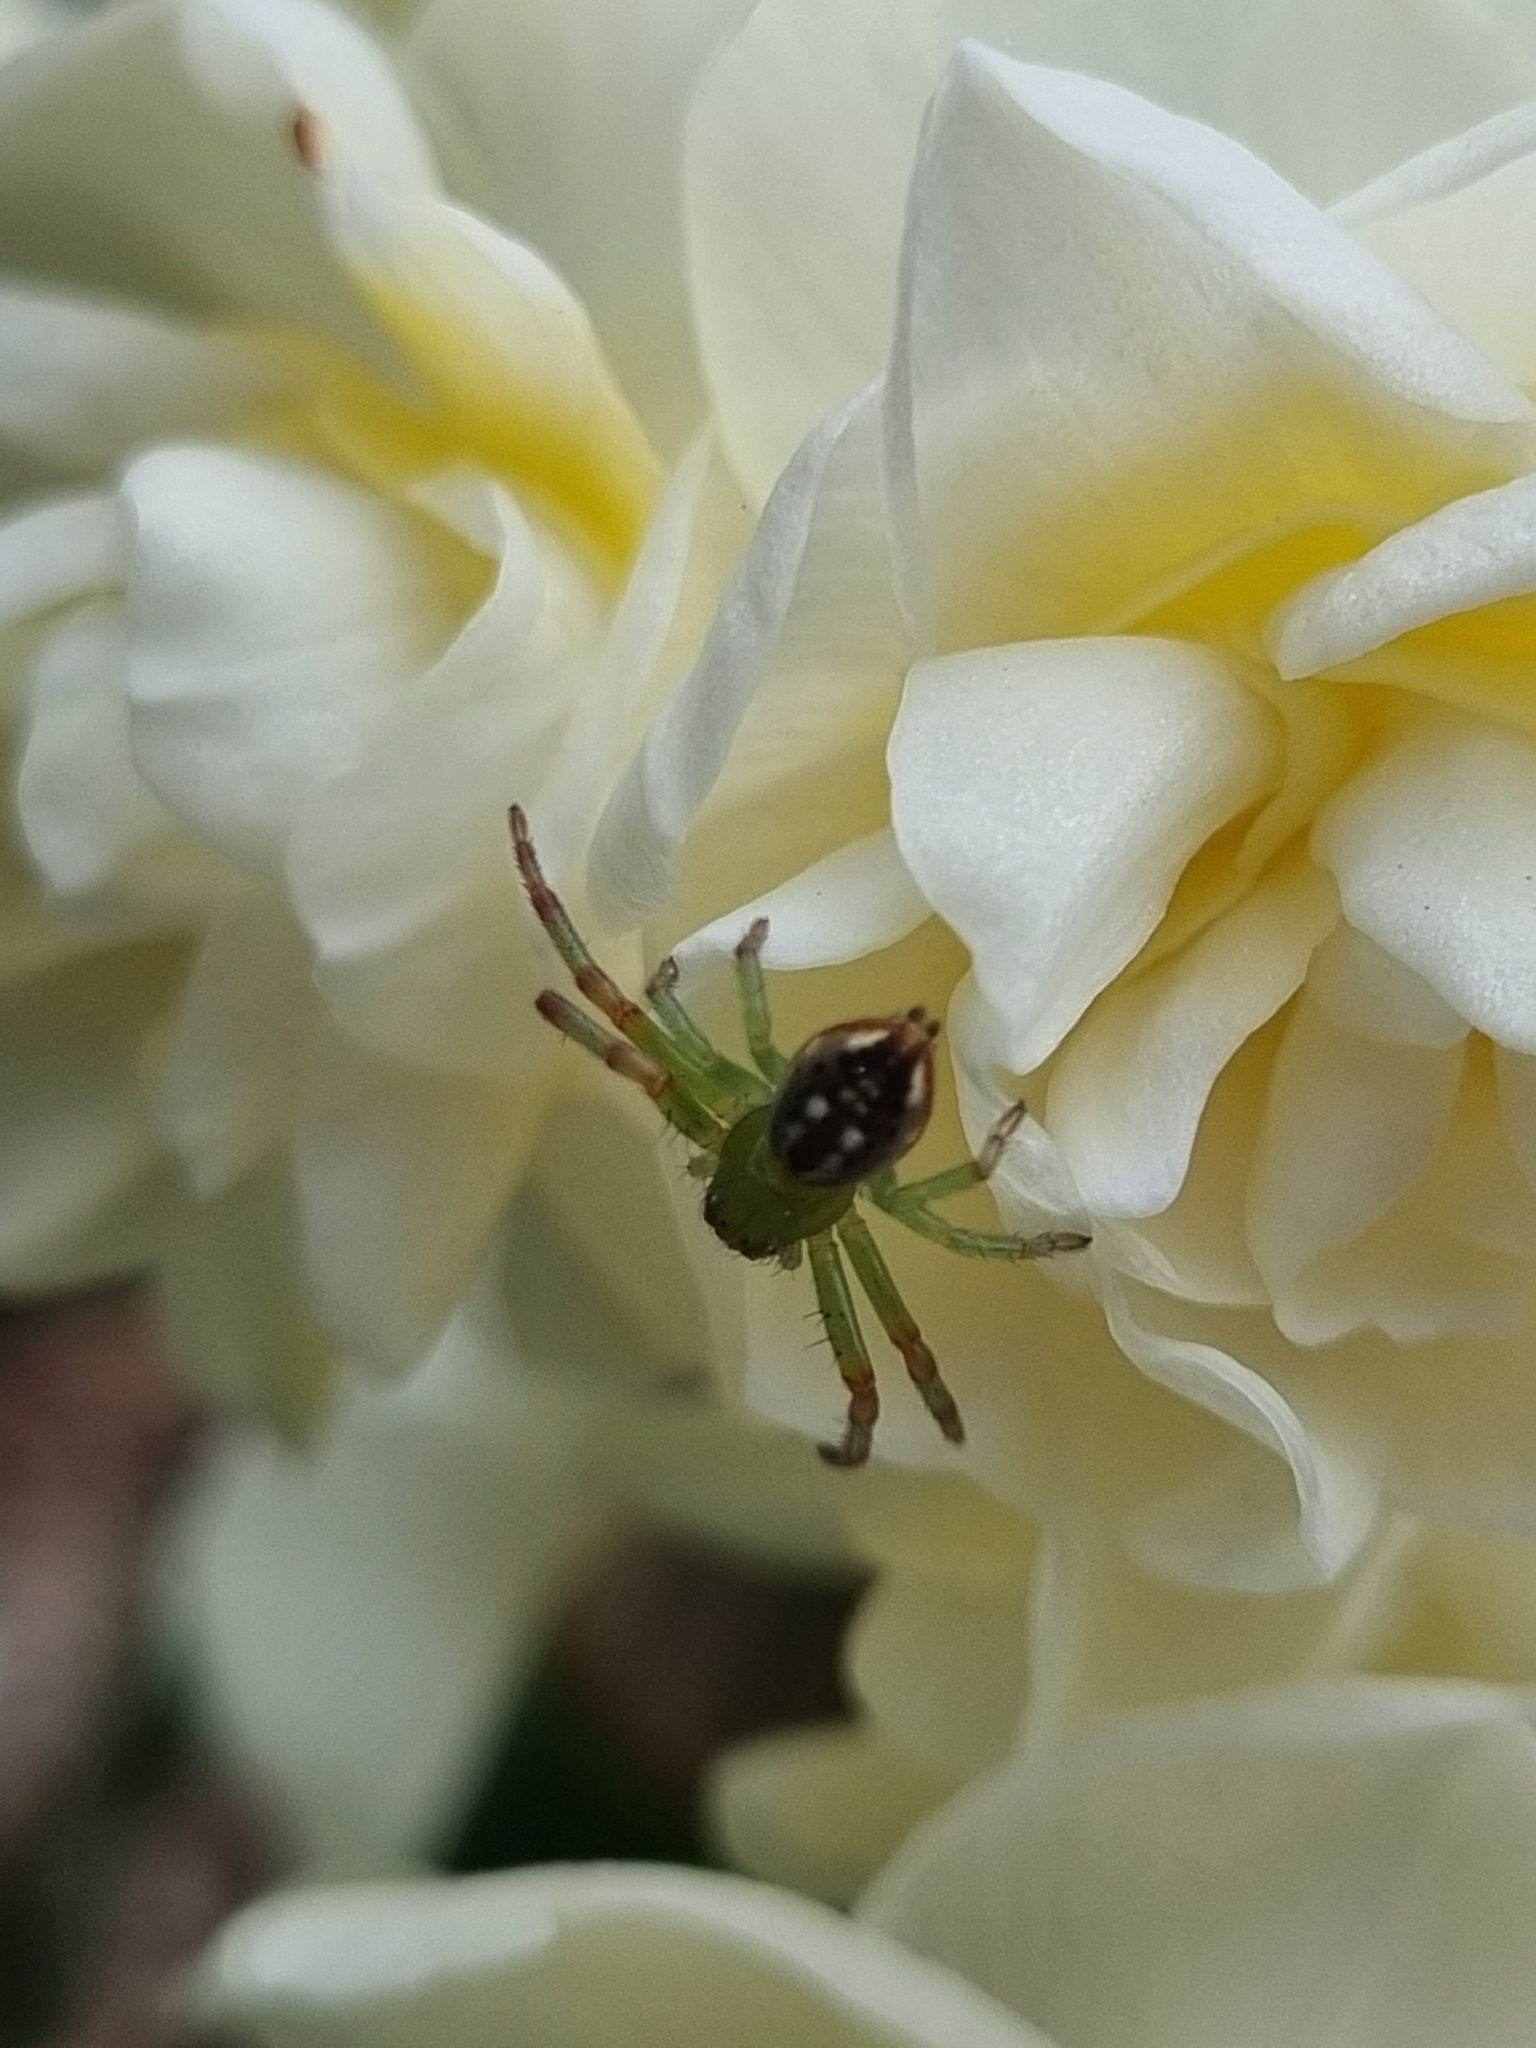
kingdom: Animalia
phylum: Arthropoda
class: Arachnida
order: Araneae
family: Thomisidae
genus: Australomisidia
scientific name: Australomisidia pilula
